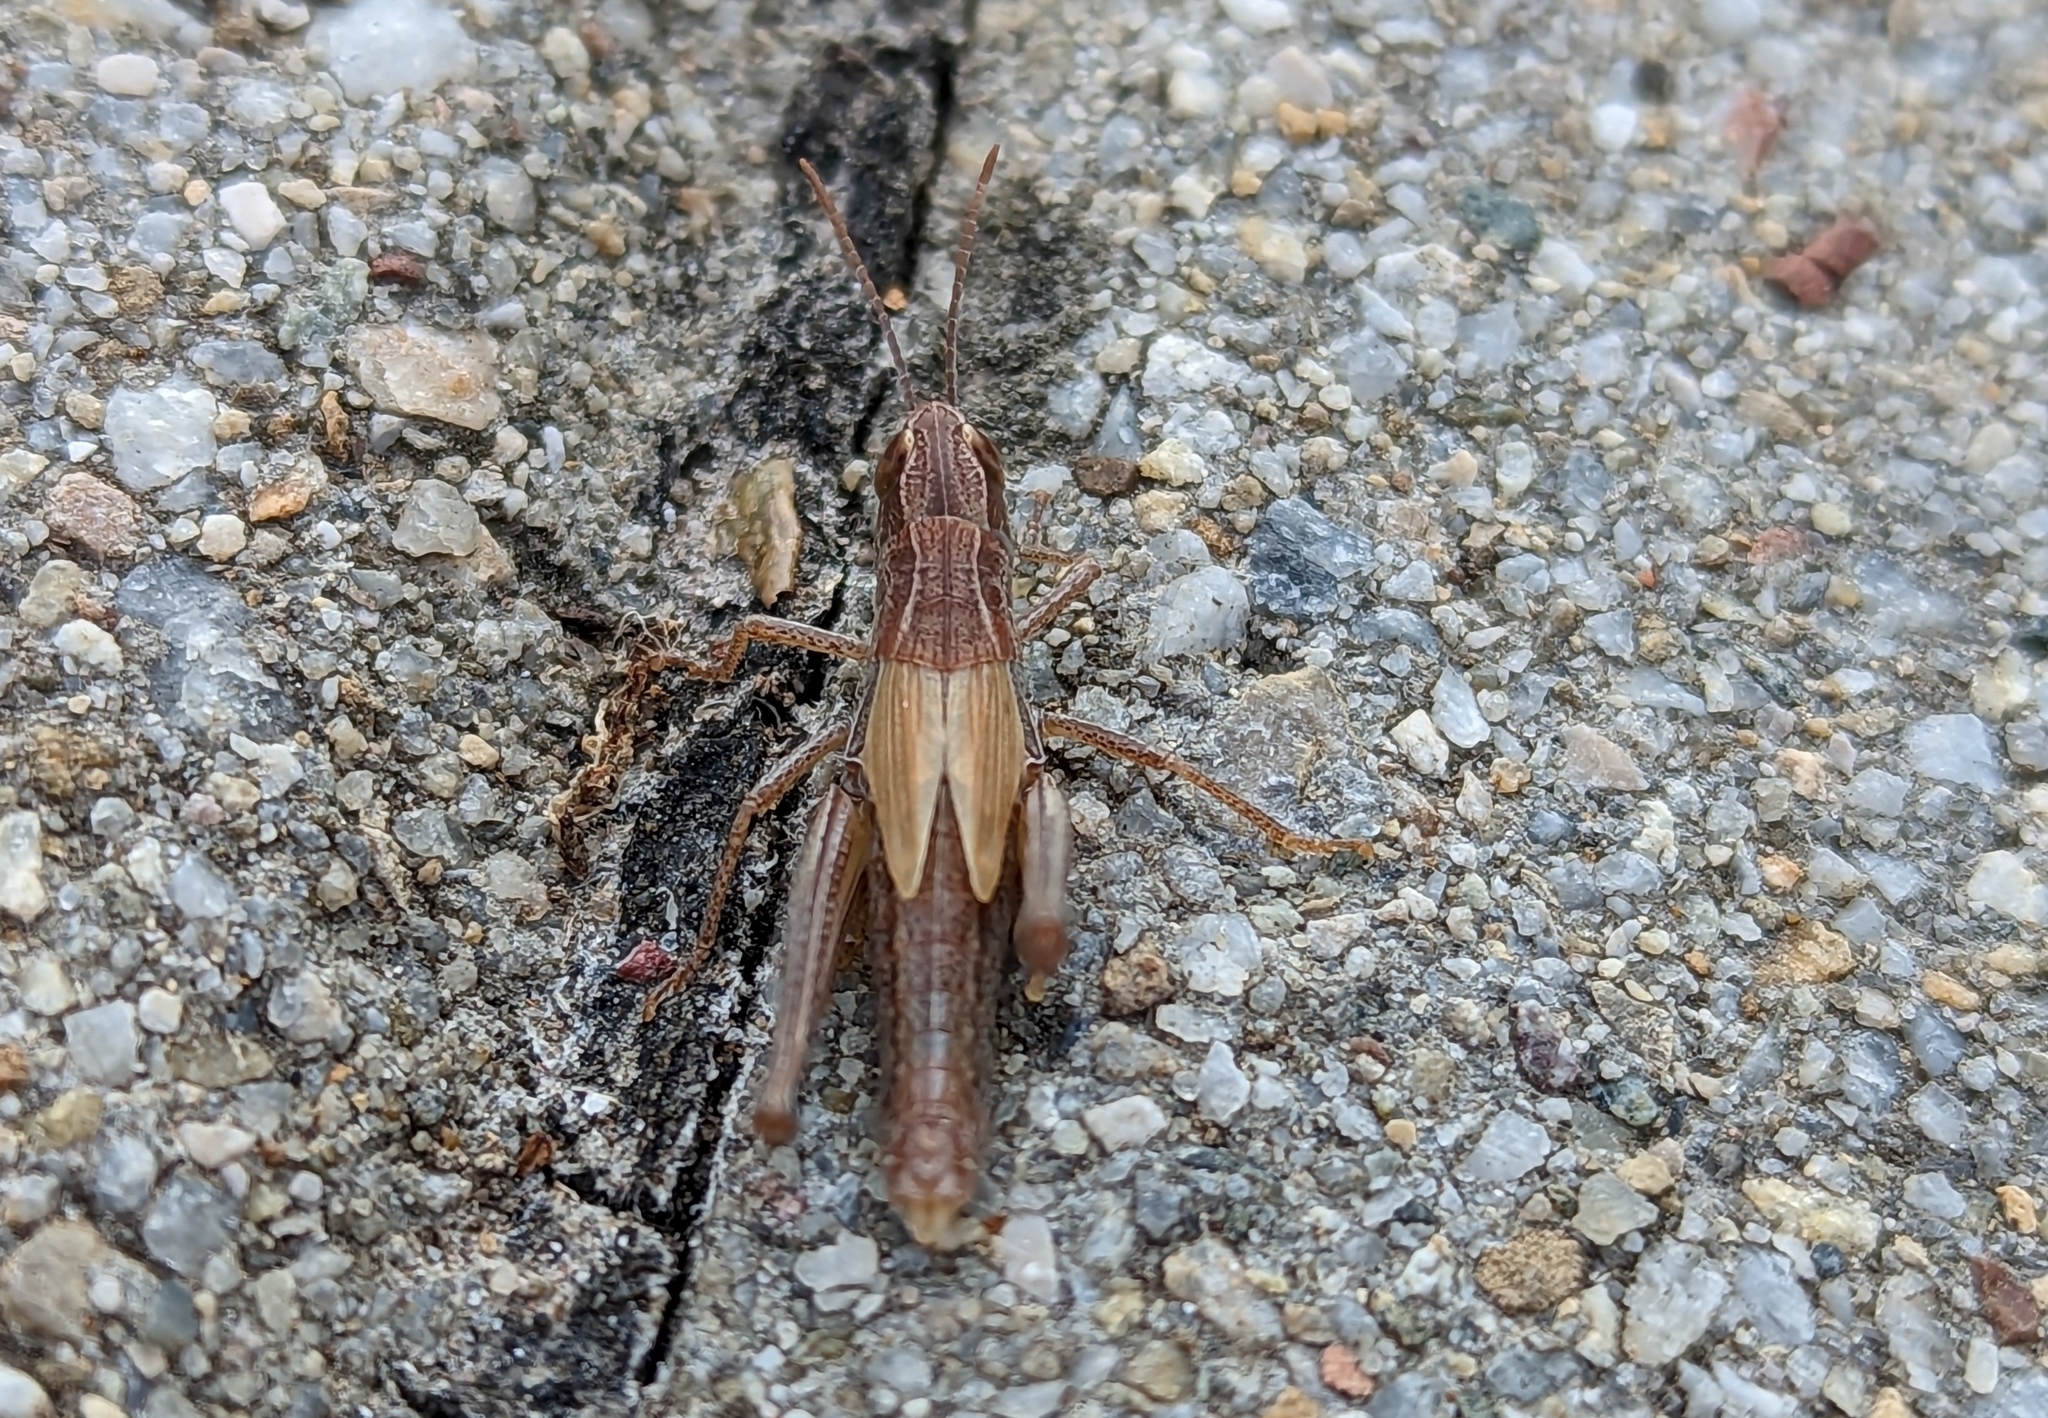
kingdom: Animalia
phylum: Arthropoda
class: Insecta
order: Orthoptera
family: Acrididae
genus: Pseudochorthippus
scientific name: Pseudochorthippus parallelus
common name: Meadow grasshopper
